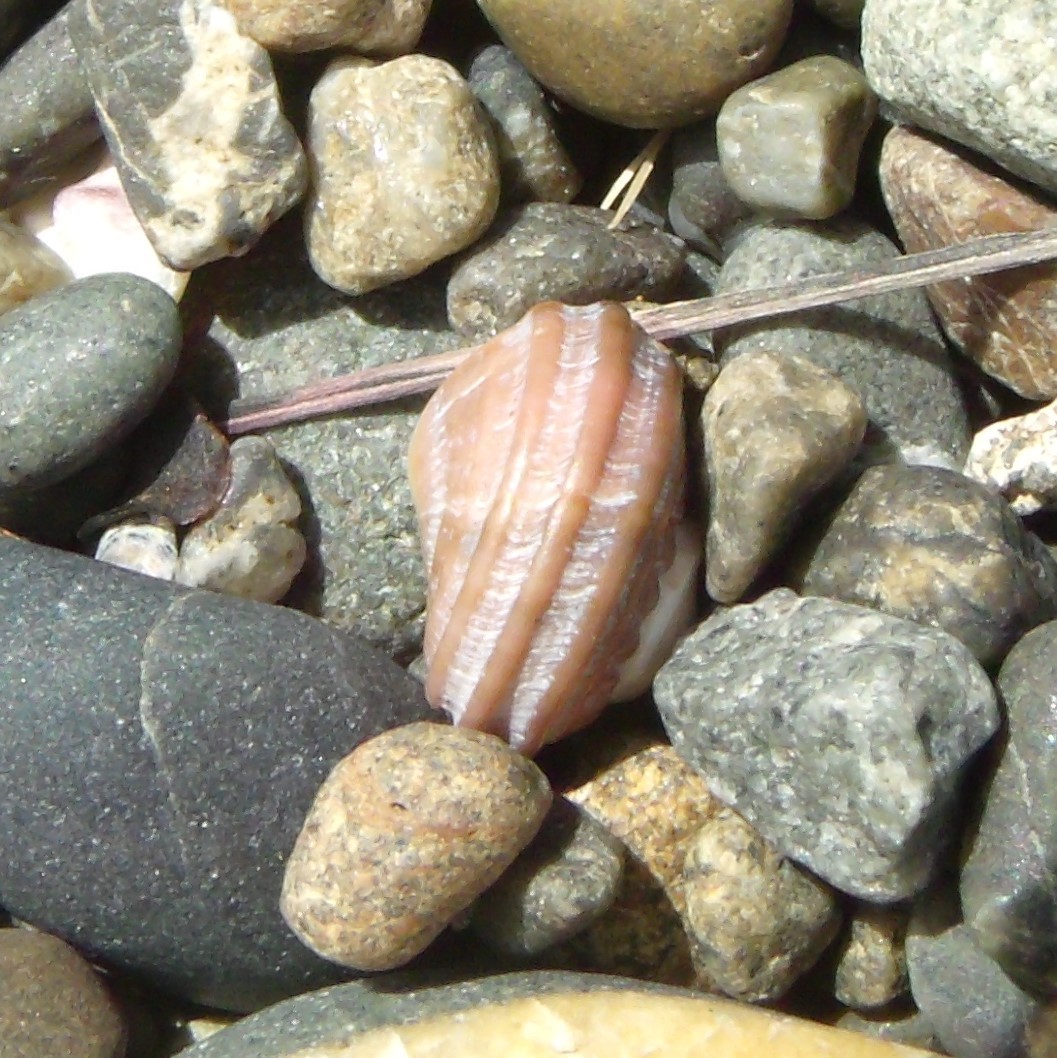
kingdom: Animalia
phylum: Mollusca
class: Gastropoda
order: Trochida
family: Turbinidae
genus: Lunella
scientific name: Lunella smaragda
